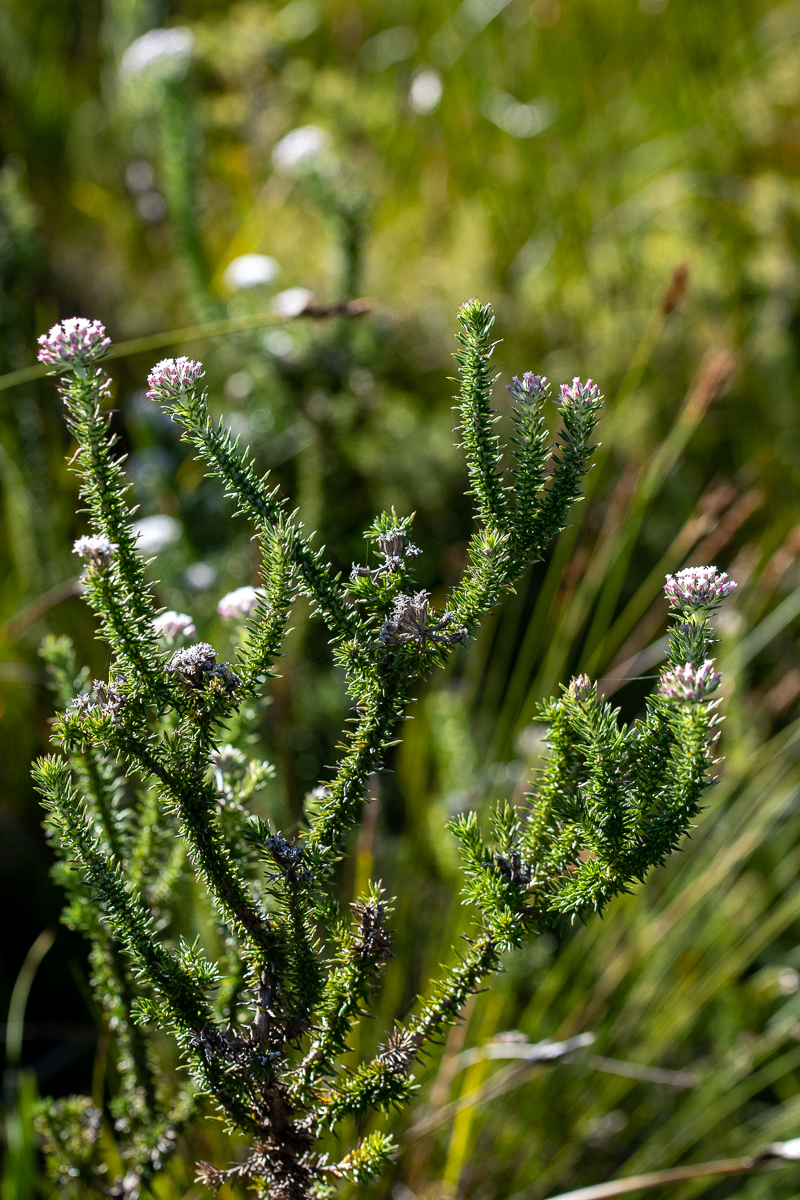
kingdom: Plantae
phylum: Tracheophyta
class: Magnoliopsida
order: Asterales
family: Asteraceae
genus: Metalasia
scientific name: Metalasia lichtensteinii
